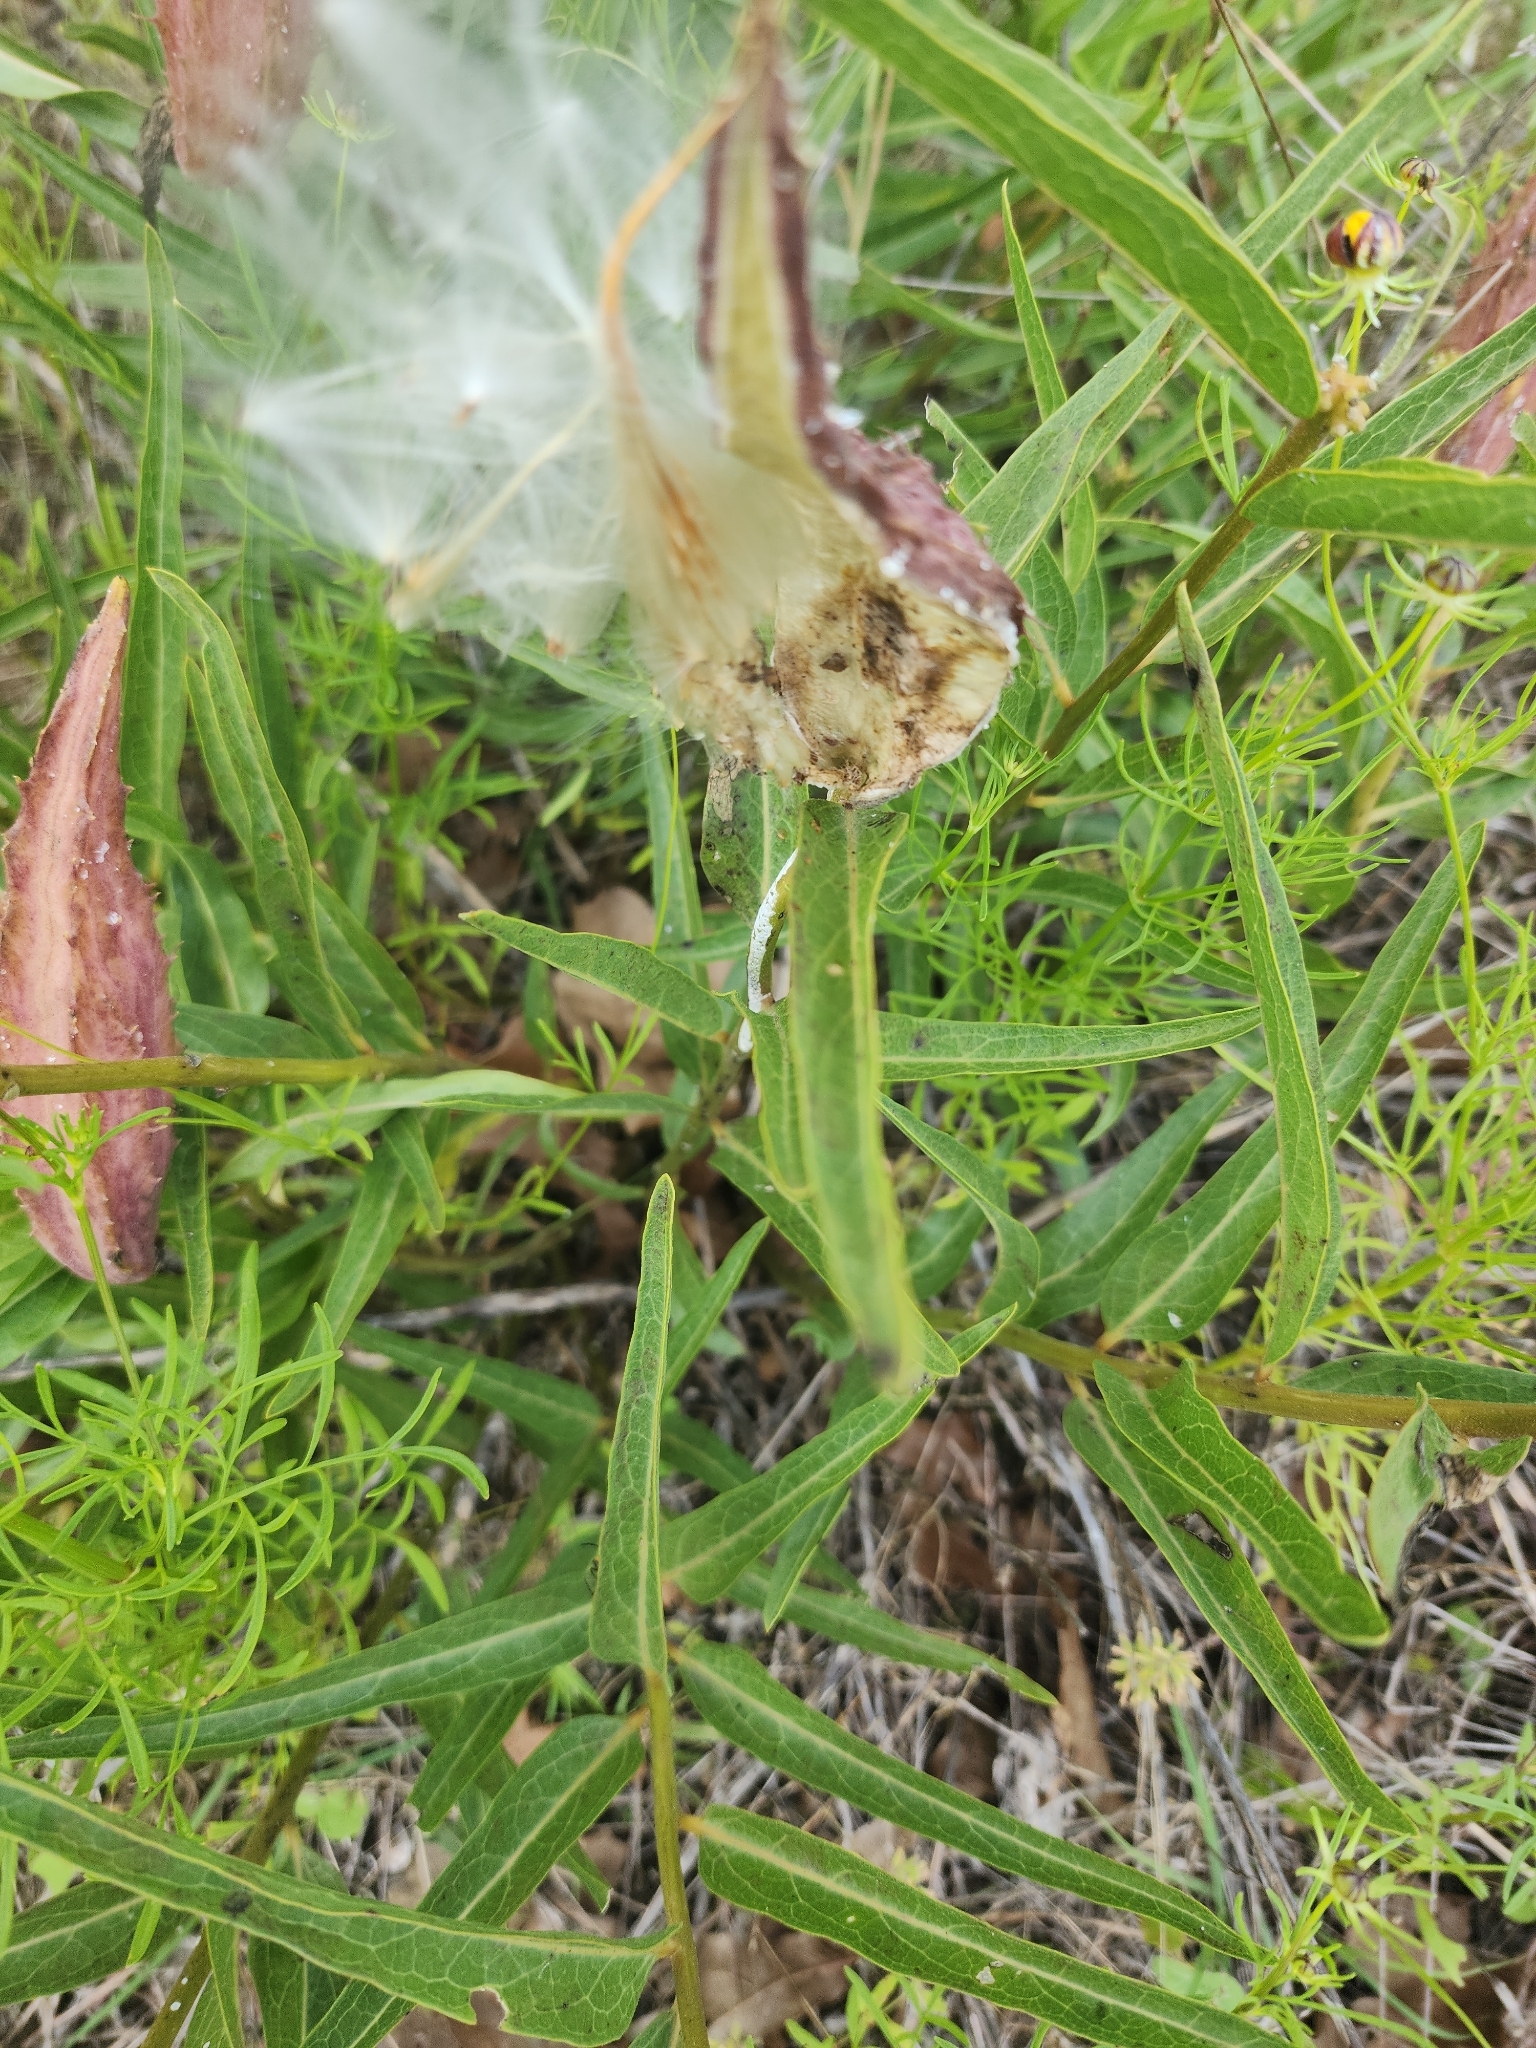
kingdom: Plantae
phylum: Tracheophyta
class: Magnoliopsida
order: Gentianales
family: Apocynaceae
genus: Asclepias
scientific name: Asclepias asperula
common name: Antelope horns
